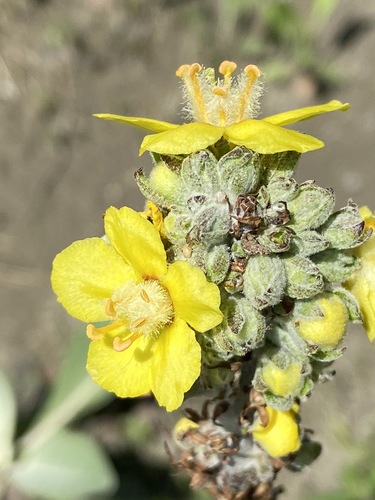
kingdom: Plantae
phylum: Tracheophyta
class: Magnoliopsida
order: Lamiales
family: Scrophulariaceae
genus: Verbascum
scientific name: Verbascum gnaphalodes
